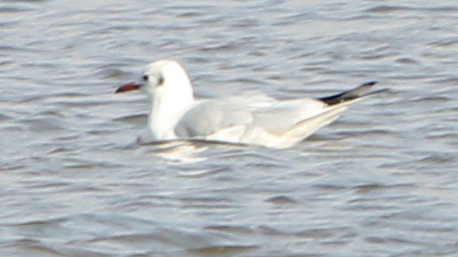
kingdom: Animalia
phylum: Chordata
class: Aves
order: Charadriiformes
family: Laridae
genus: Chroicocephalus
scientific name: Chroicocephalus ridibundus
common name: Black-headed gull
